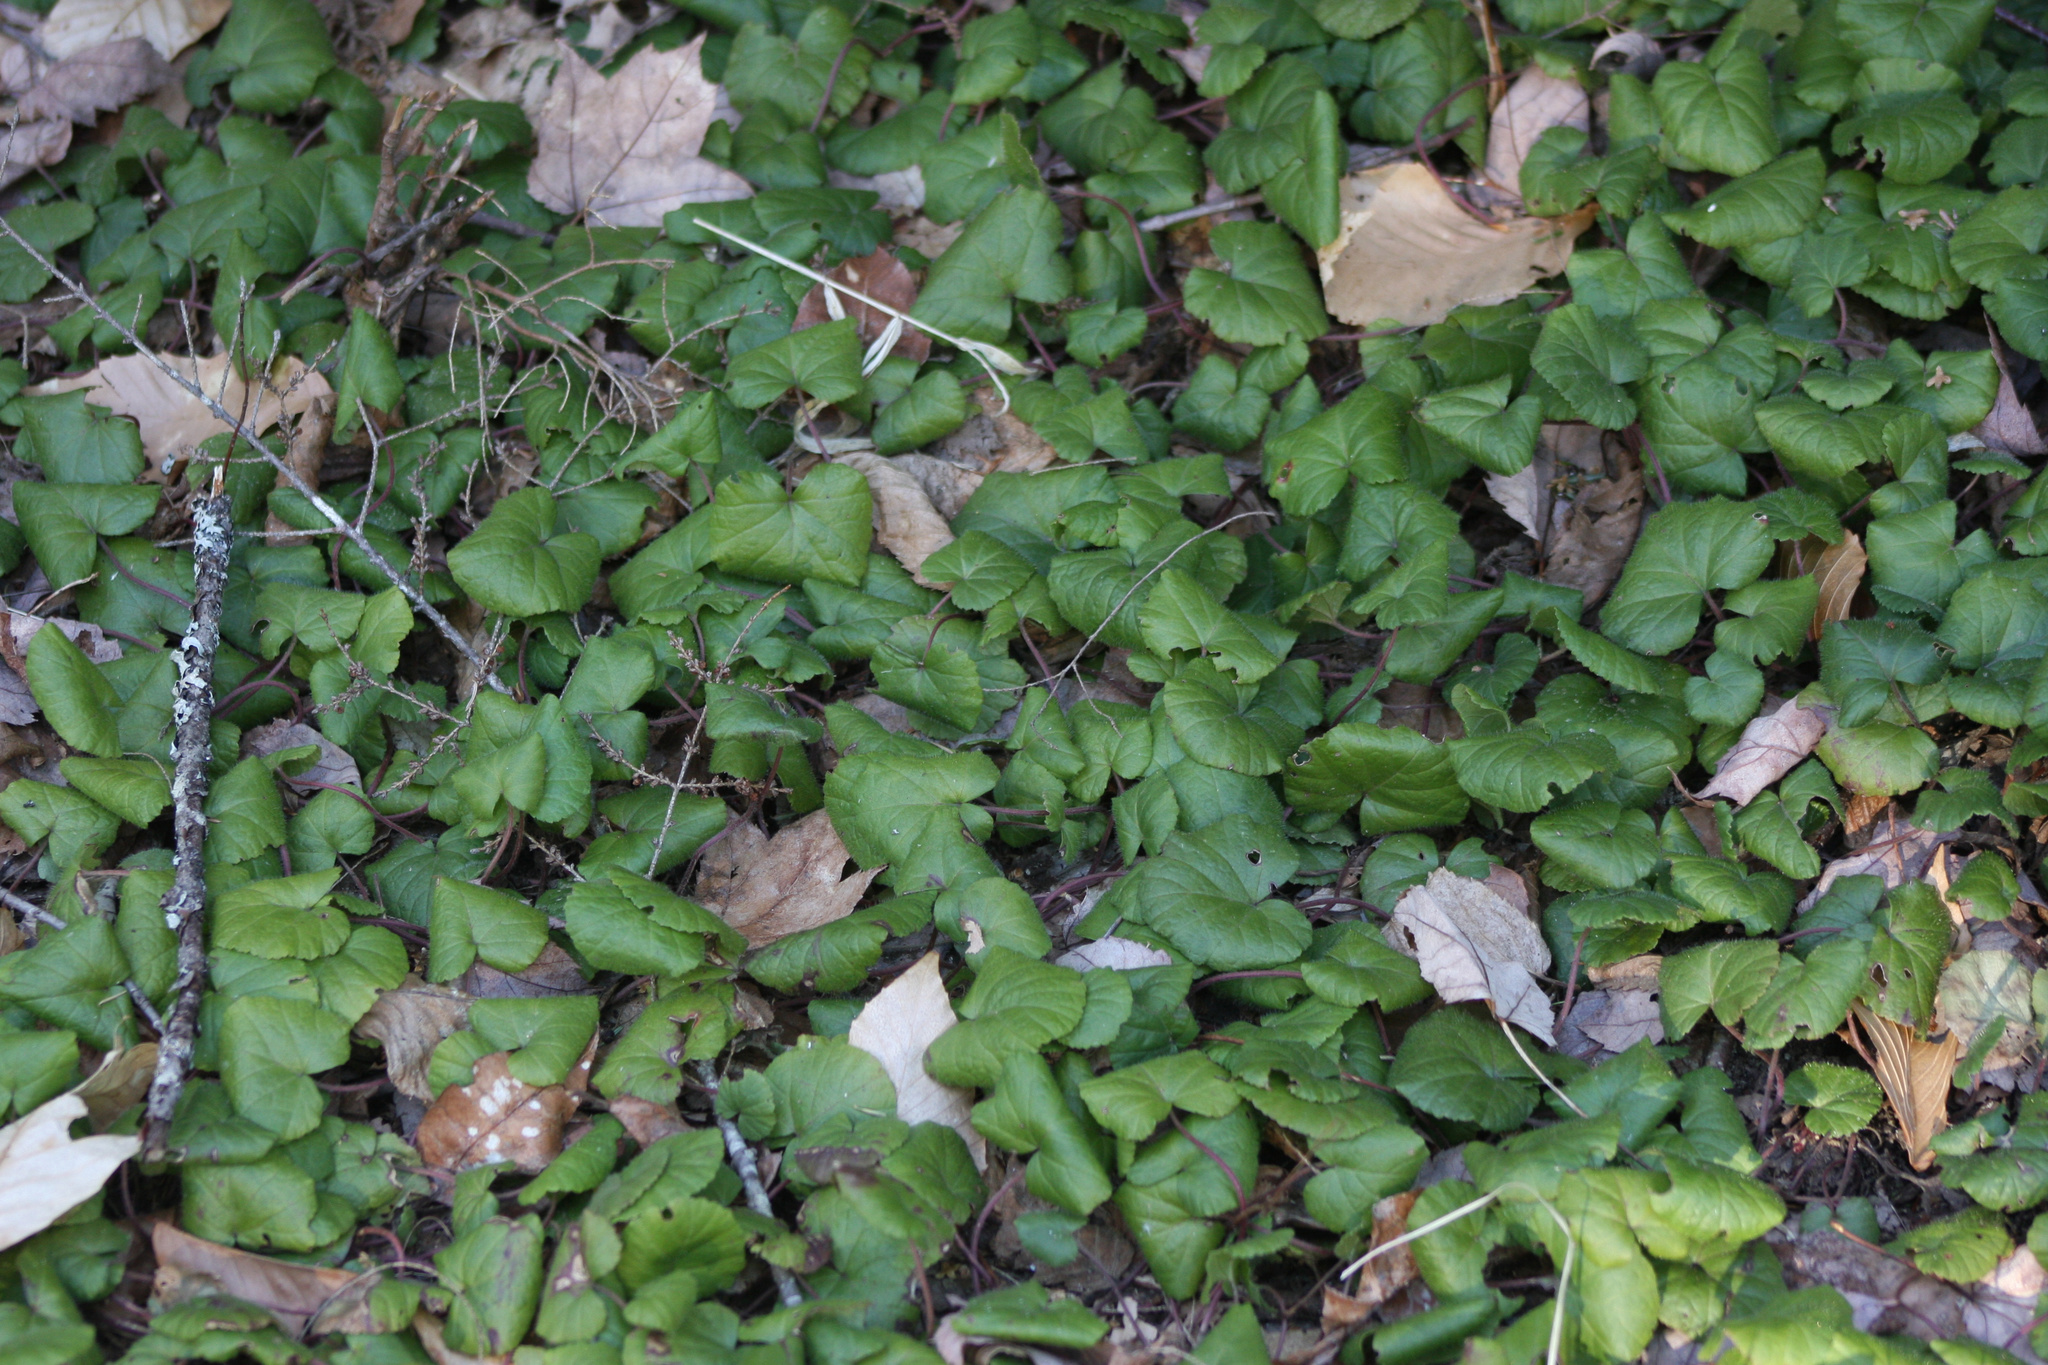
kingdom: Plantae
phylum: Tracheophyta
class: Magnoliopsida
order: Rosales
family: Rosaceae
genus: Dalibarda
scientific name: Dalibarda repens
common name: Dewdrop
